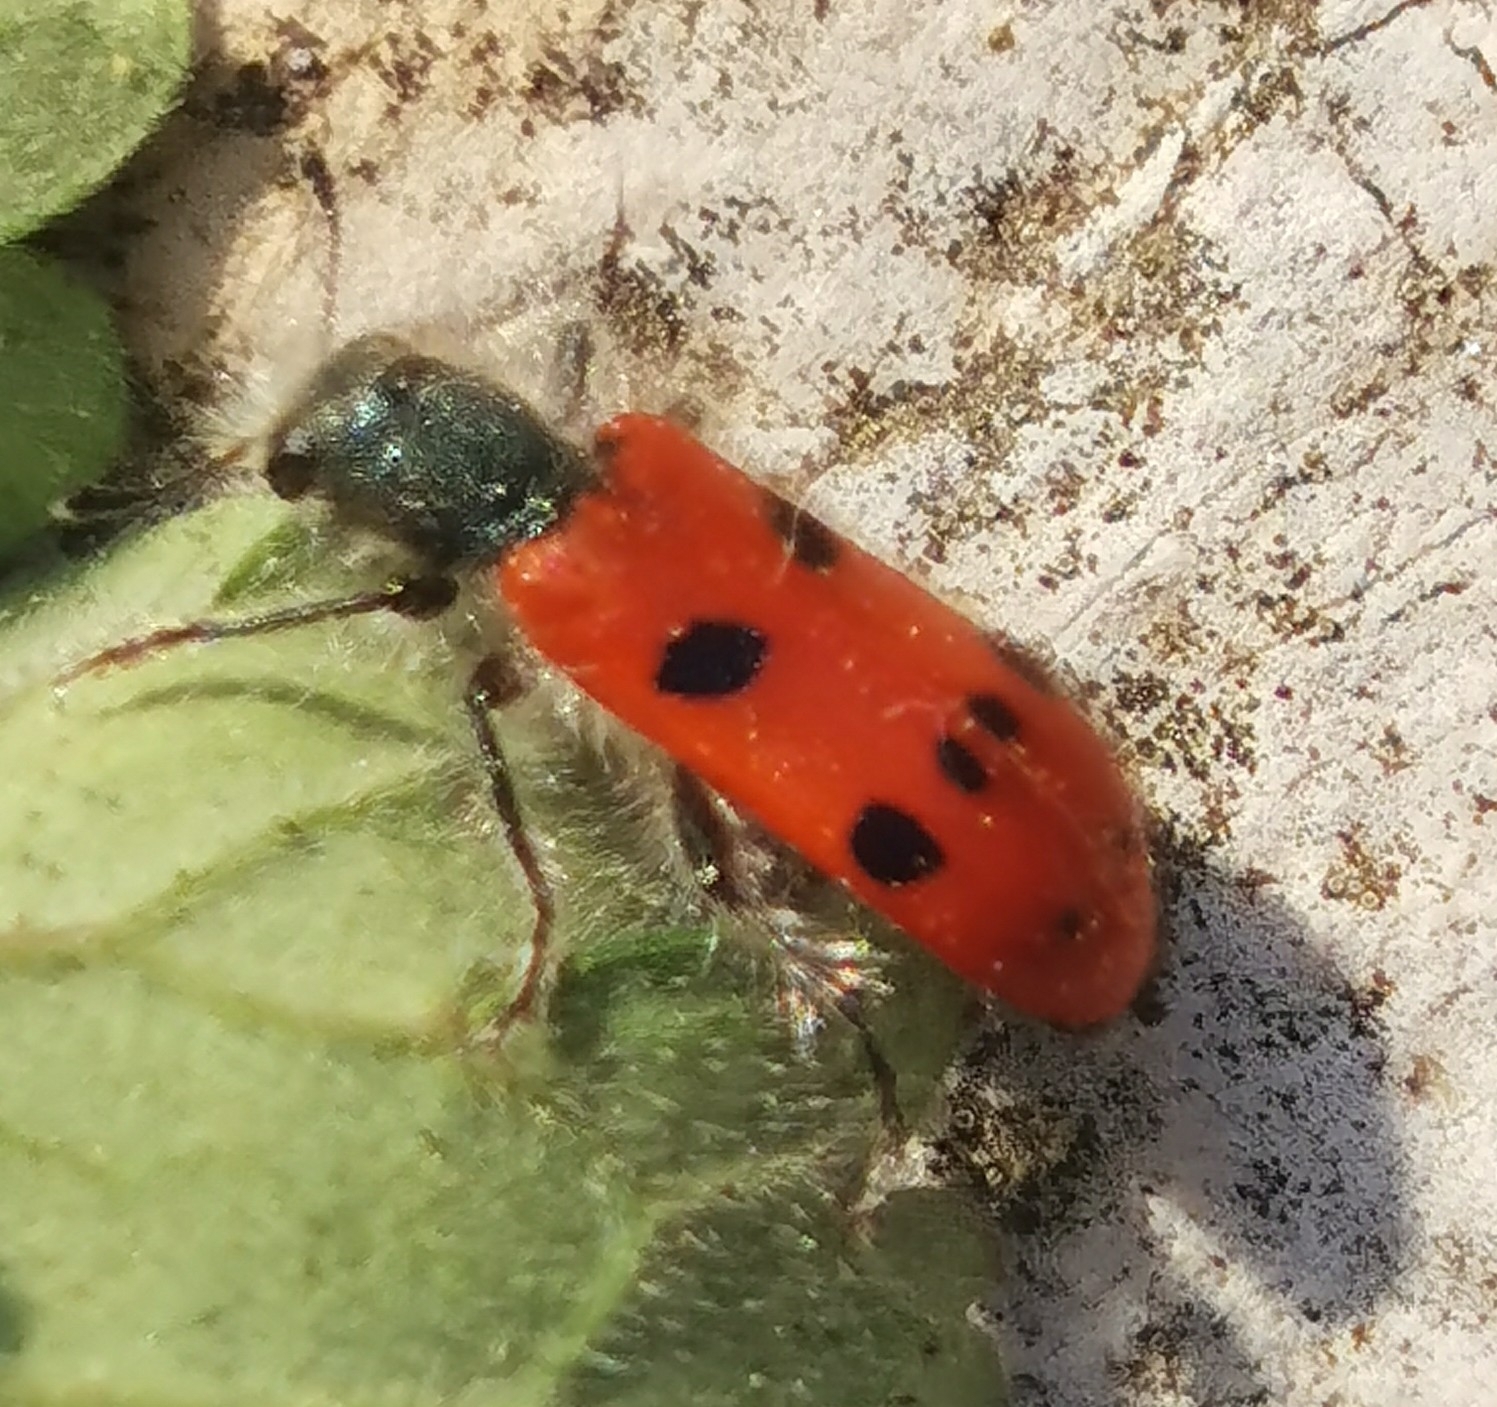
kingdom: Animalia
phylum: Arthropoda
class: Insecta
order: Coleoptera
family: Cleridae
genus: Trichodes
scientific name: Trichodes octopunctatus
